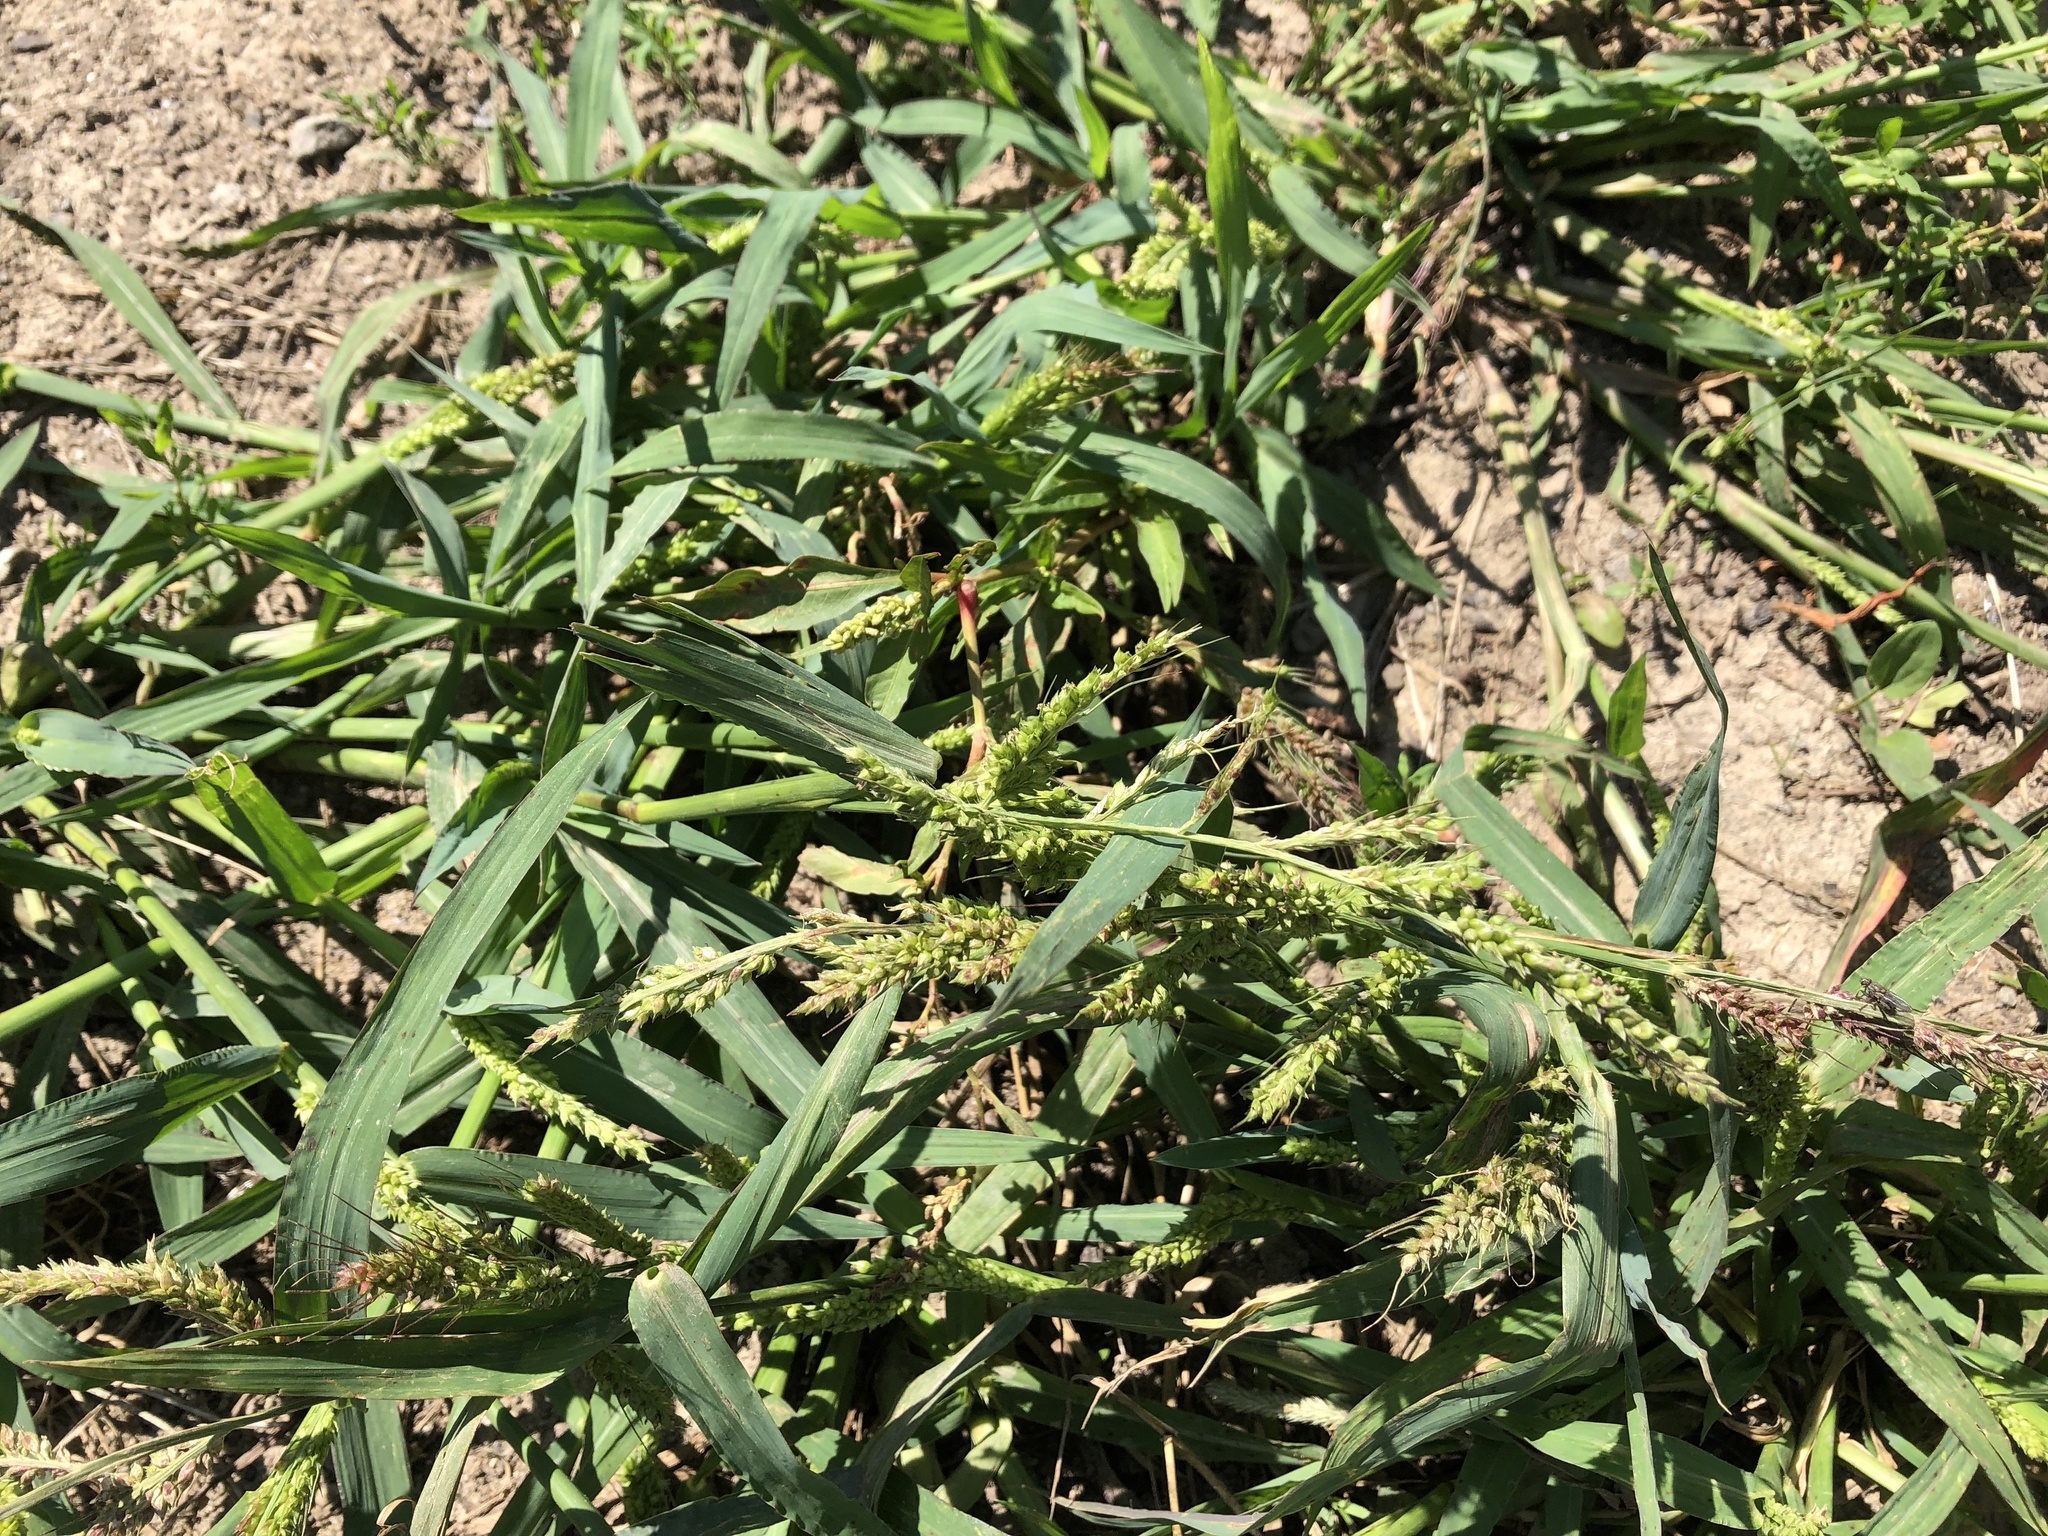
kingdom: Plantae
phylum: Tracheophyta
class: Liliopsida
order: Poales
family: Poaceae
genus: Echinochloa
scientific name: Echinochloa crus-galli
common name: Cockspur
